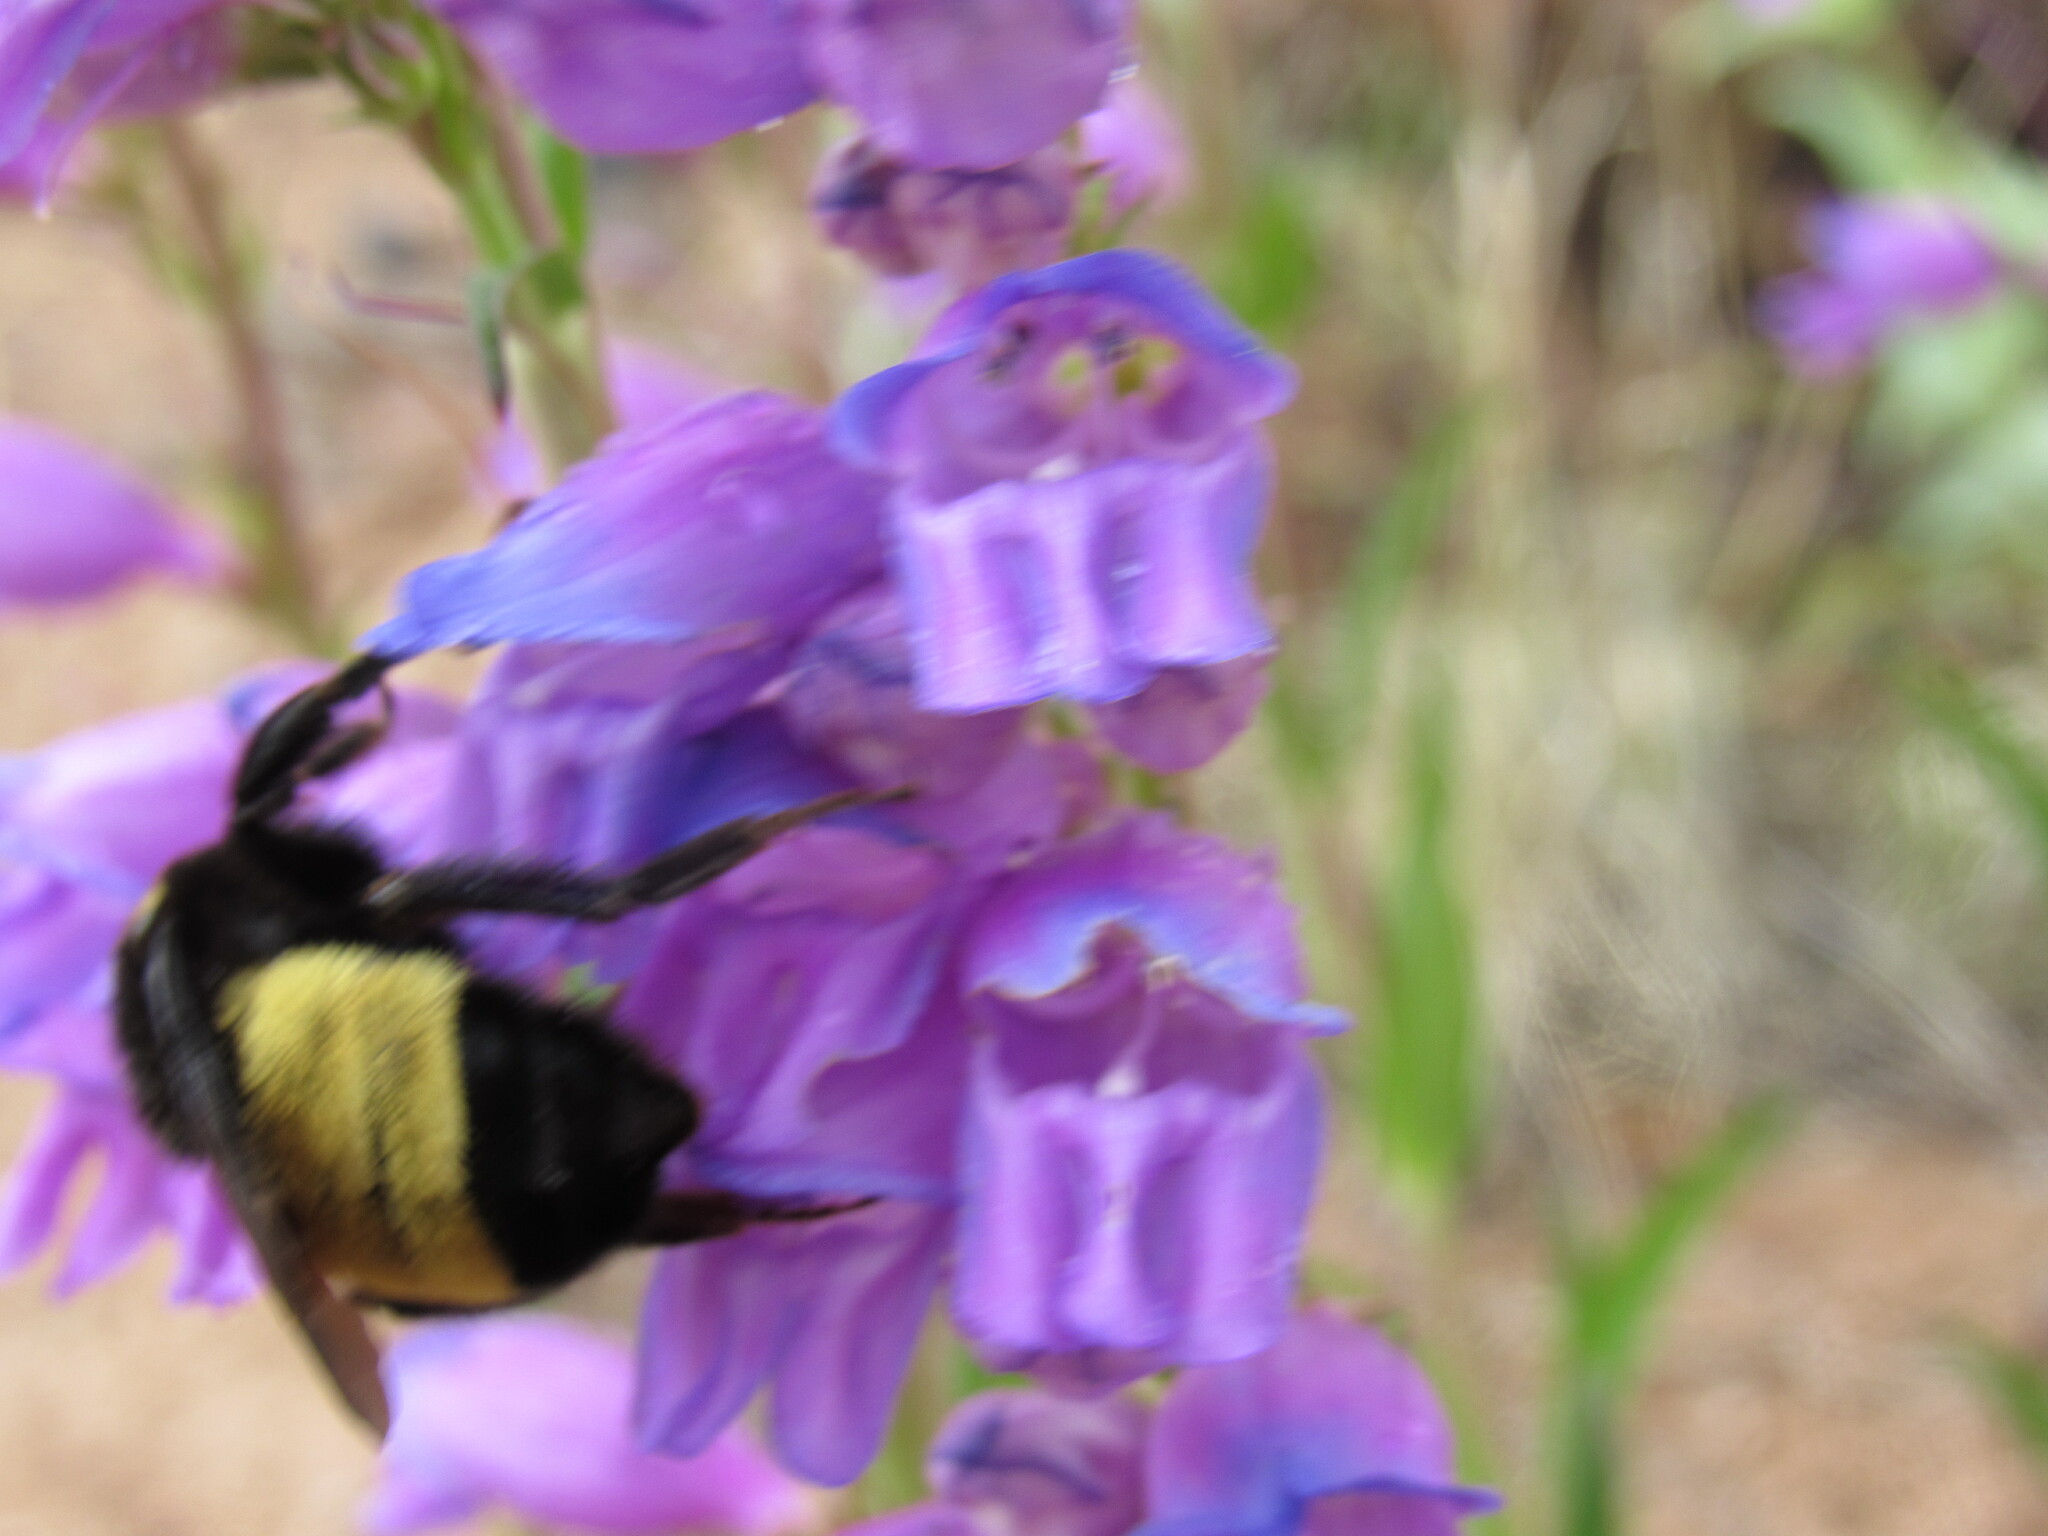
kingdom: Animalia
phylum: Arthropoda
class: Insecta
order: Hymenoptera
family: Apidae
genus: Bombus
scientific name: Bombus pensylvanicus
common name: Bumble bee
